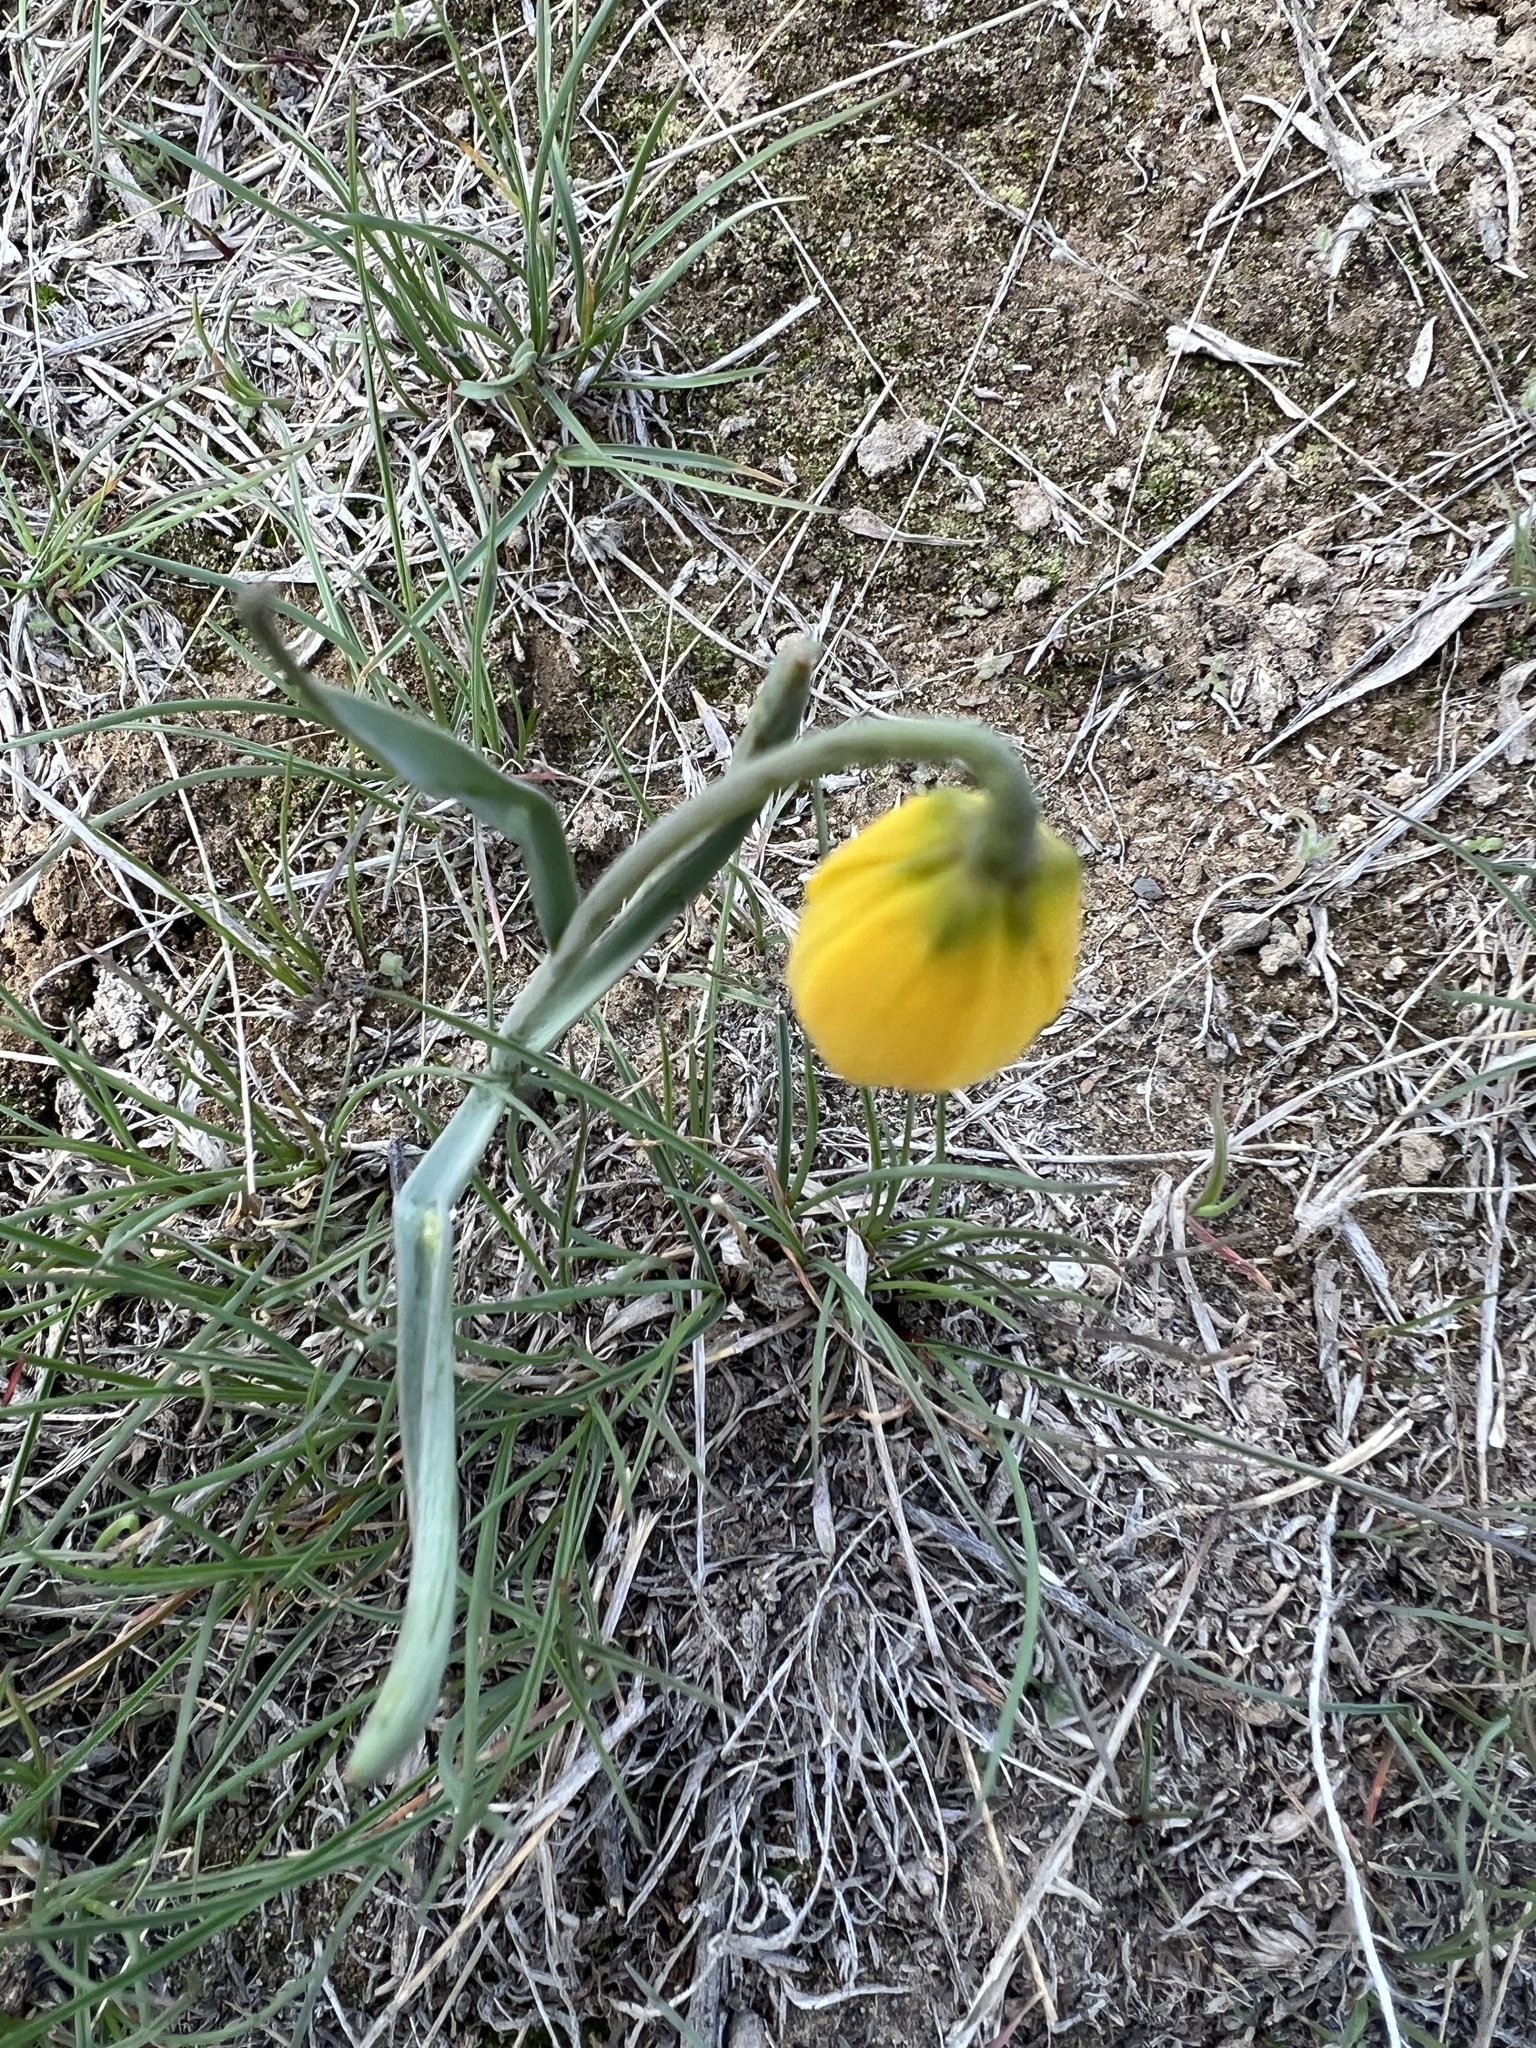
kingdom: Plantae
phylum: Tracheophyta
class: Liliopsida
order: Liliales
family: Liliaceae
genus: Fritillaria
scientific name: Fritillaria pudica
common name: Yellow fritillary
